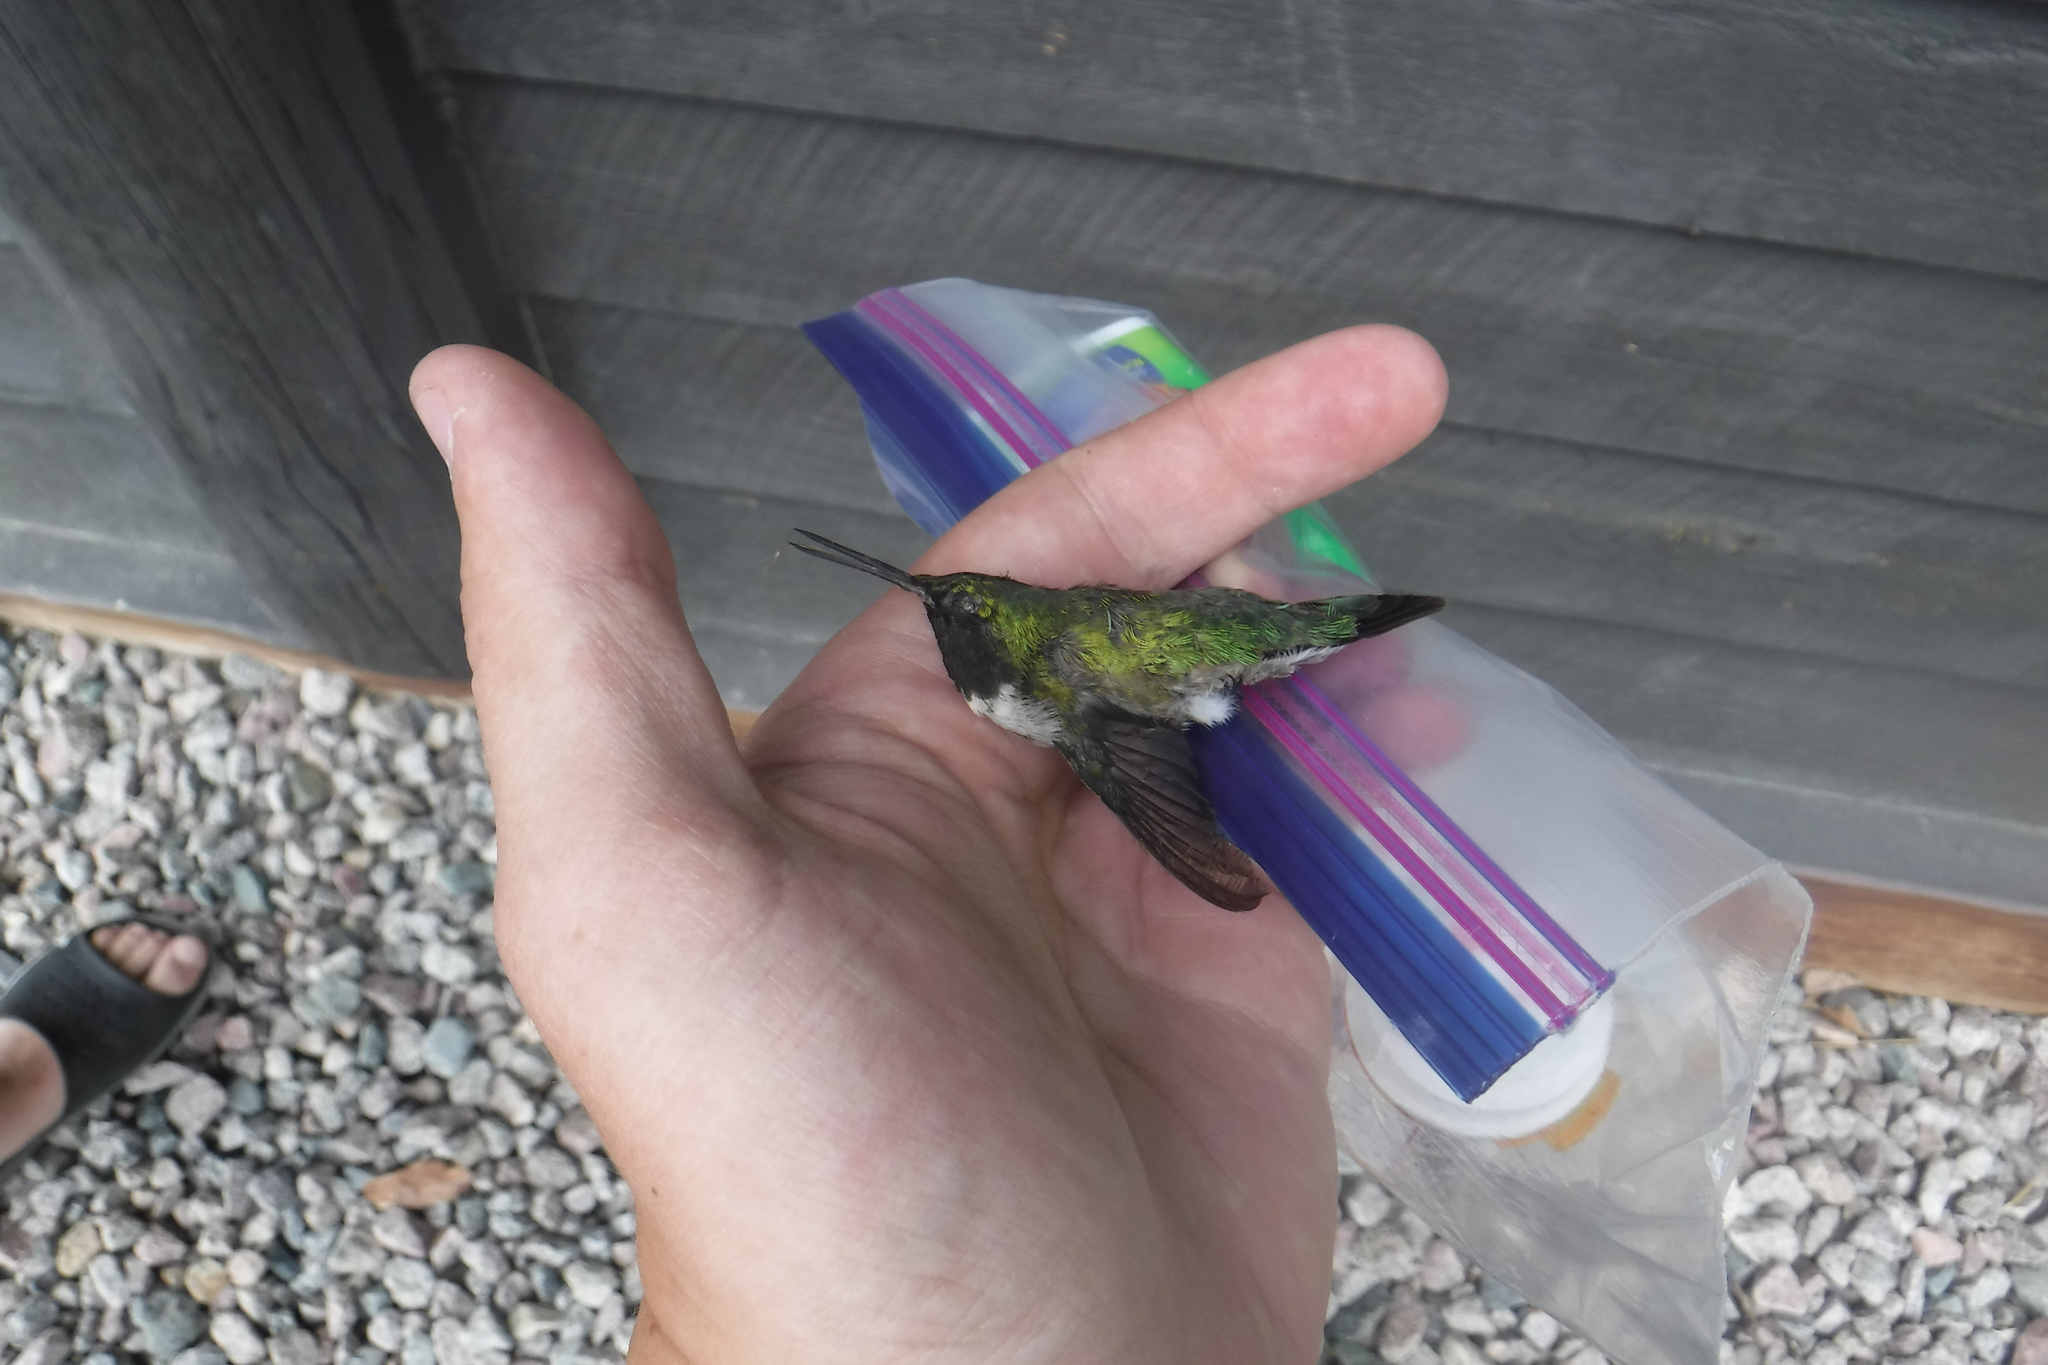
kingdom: Animalia
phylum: Chordata
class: Aves
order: Apodiformes
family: Trochilidae
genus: Archilochus
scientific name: Archilochus colubris
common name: Ruby-throated hummingbird
